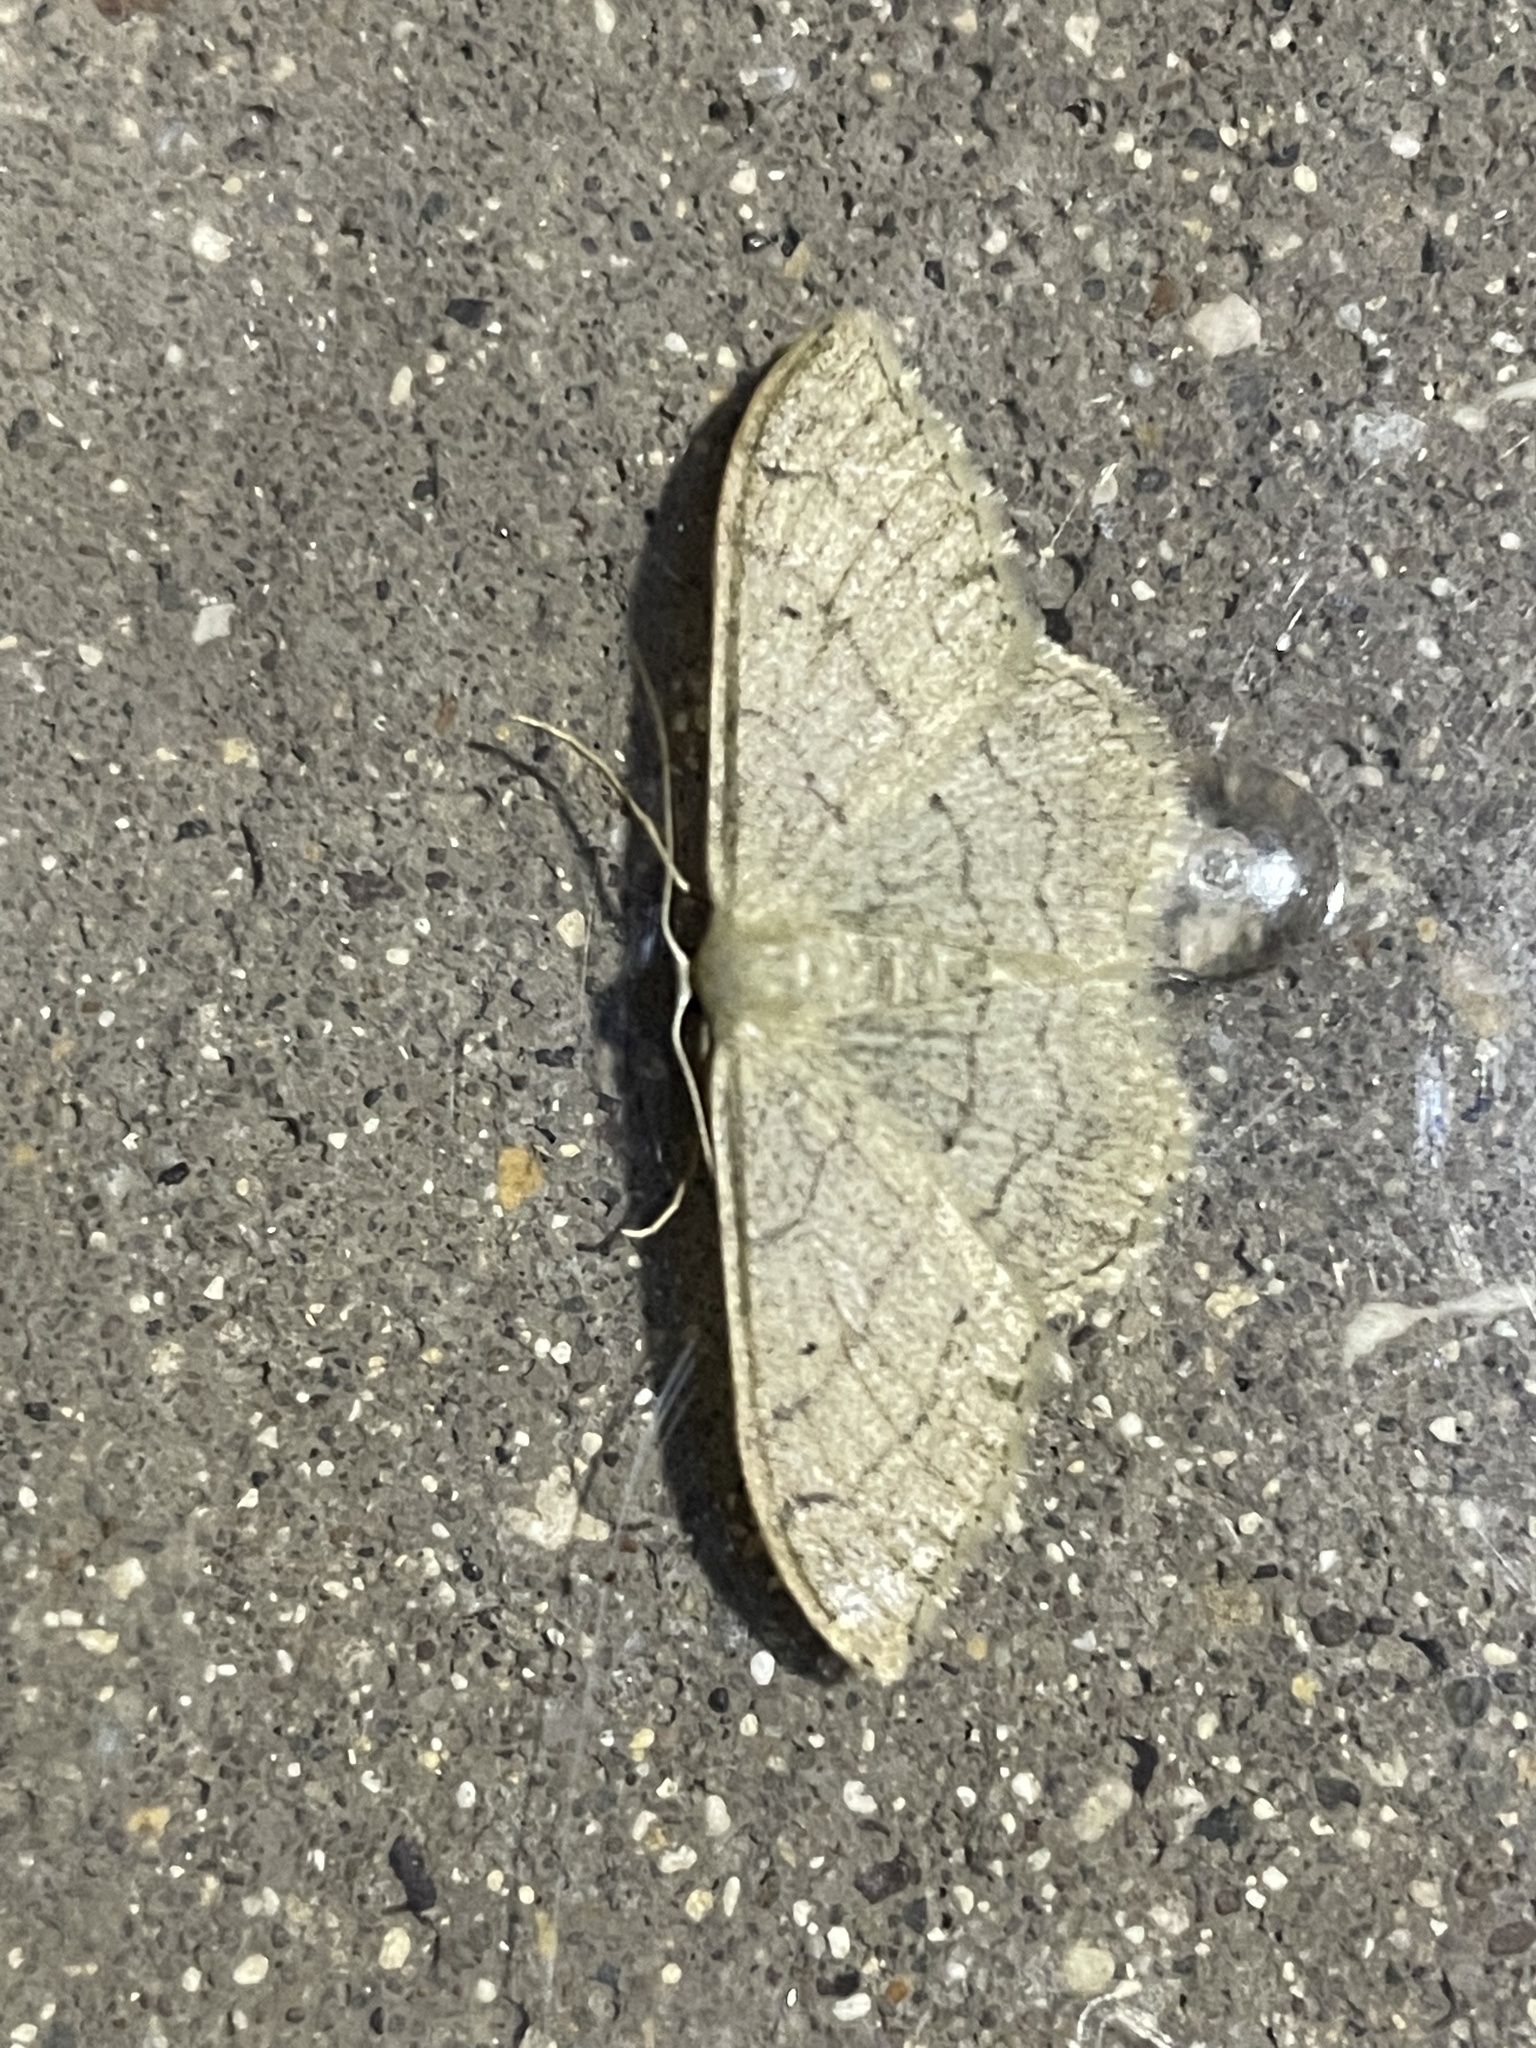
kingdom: Animalia
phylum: Arthropoda
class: Insecta
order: Lepidoptera
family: Geometridae
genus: Idaea
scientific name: Idaea aversata
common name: Riband wave
